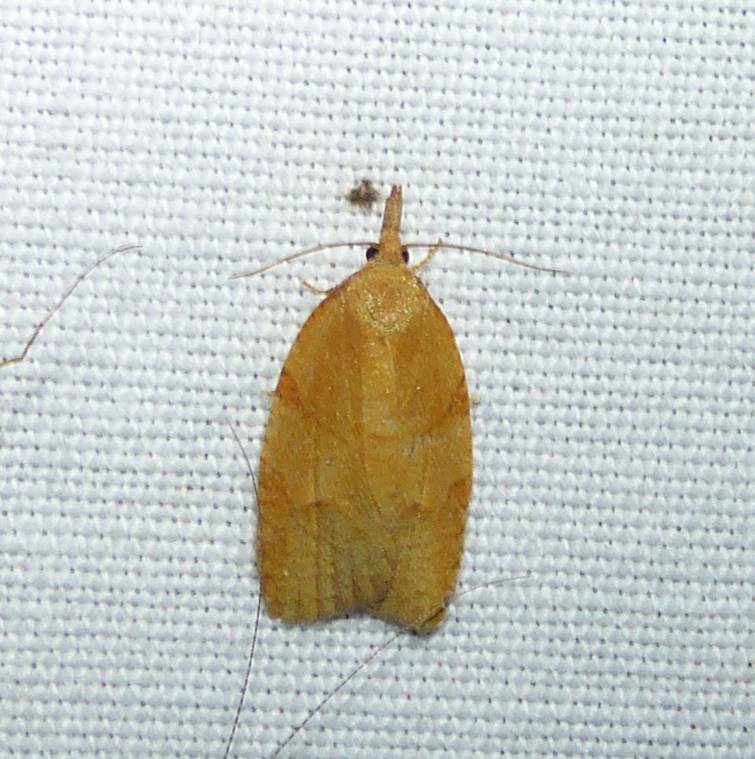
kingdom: Animalia
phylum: Arthropoda
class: Insecta
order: Lepidoptera
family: Tortricidae
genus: Cenopis
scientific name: Cenopis directana
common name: Chokecherry leafroller moth
